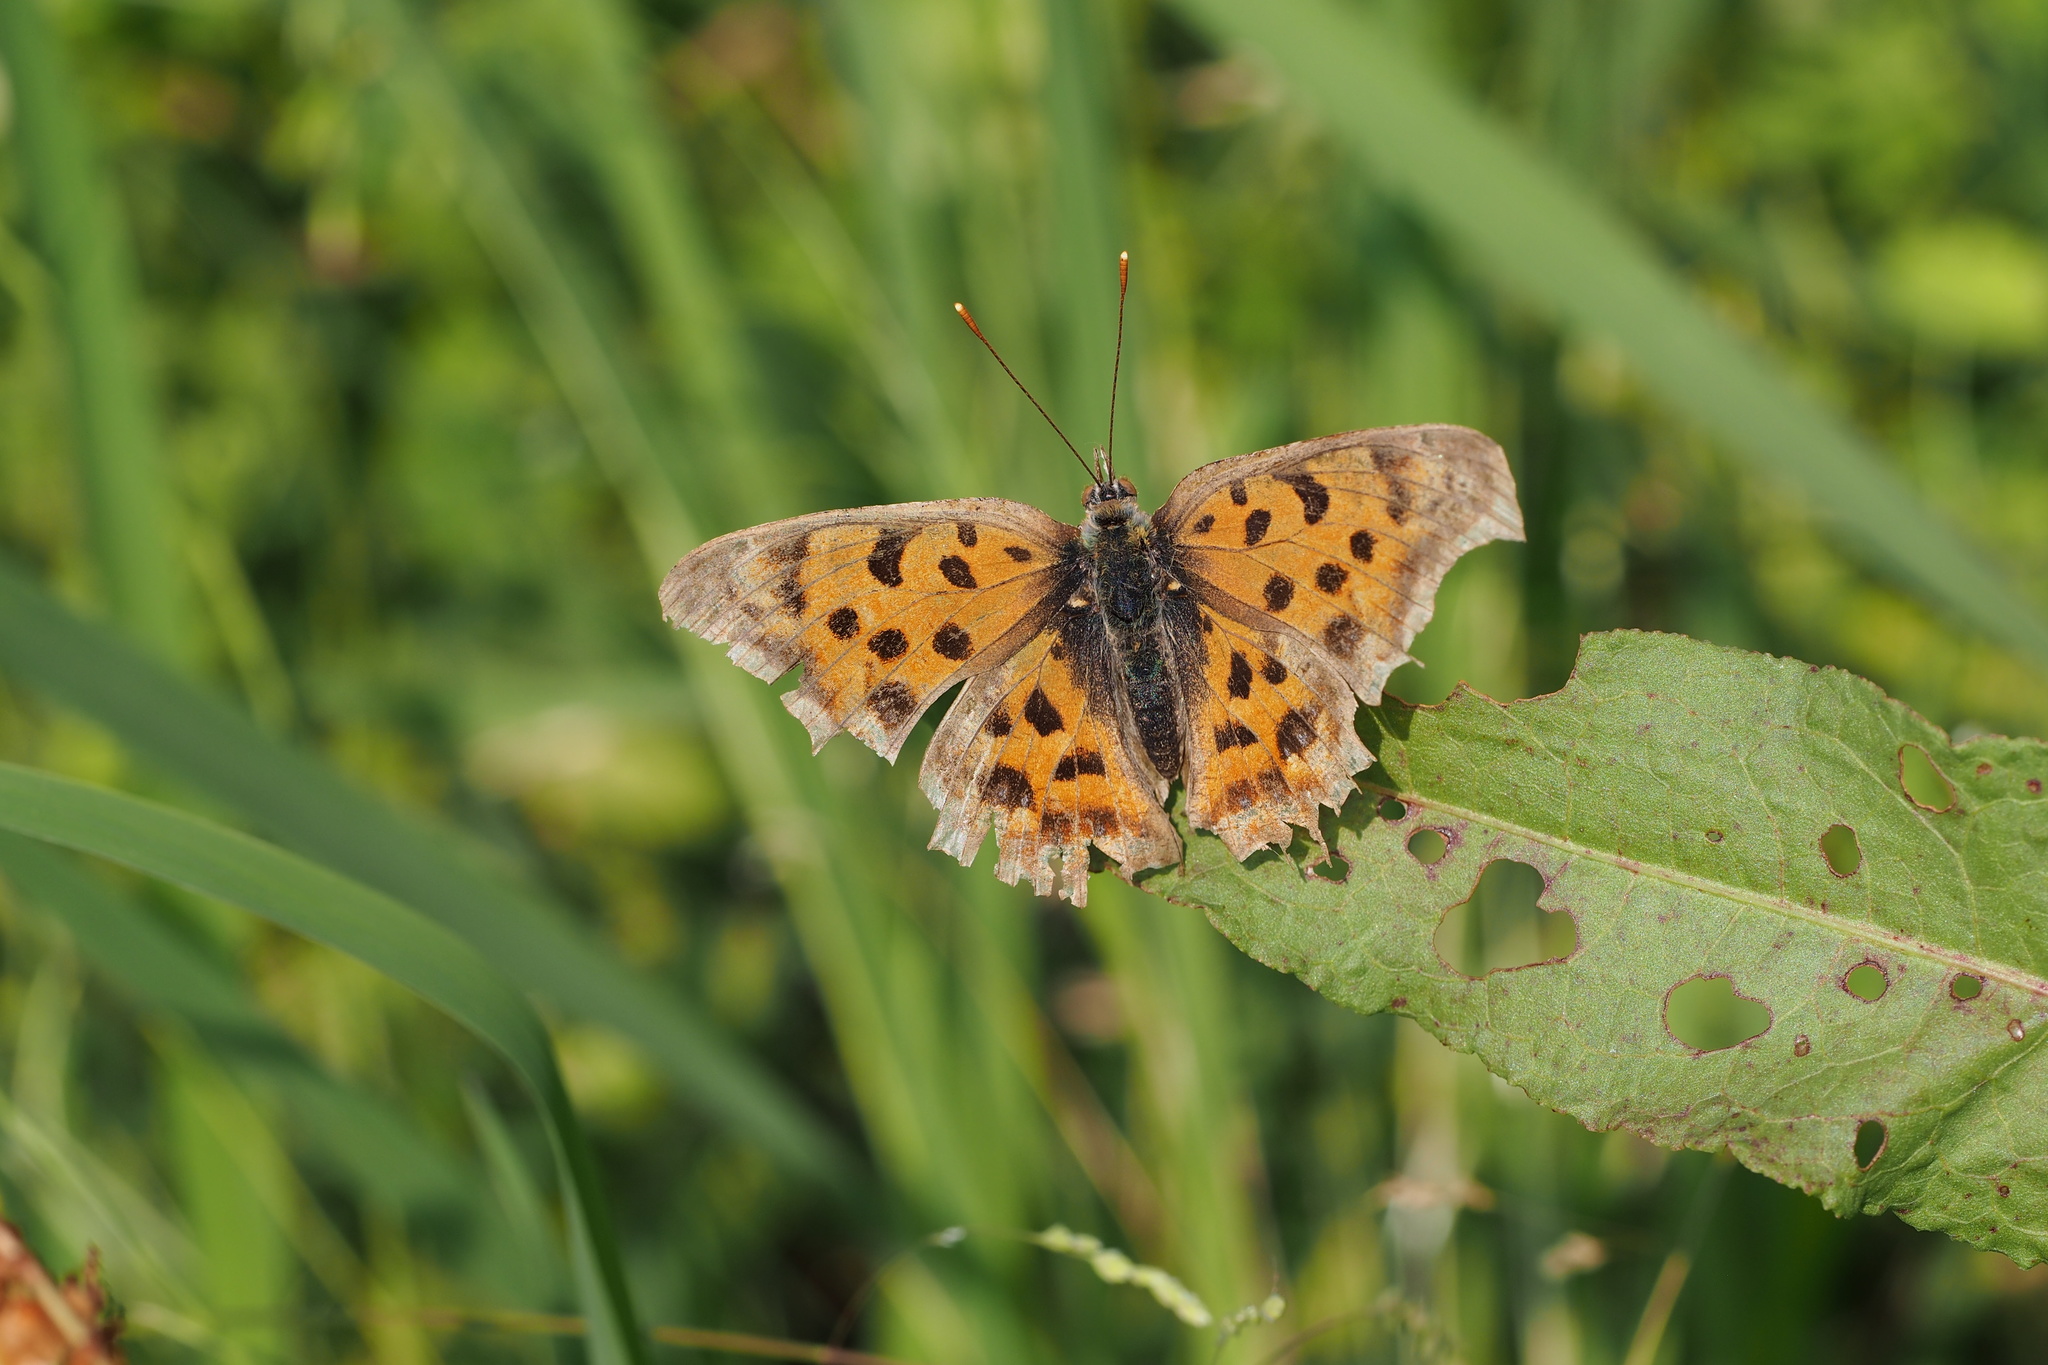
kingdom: Animalia
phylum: Arthropoda
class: Insecta
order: Lepidoptera
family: Nymphalidae
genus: Polygonia
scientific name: Polygonia c-aureum
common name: Asian comma
